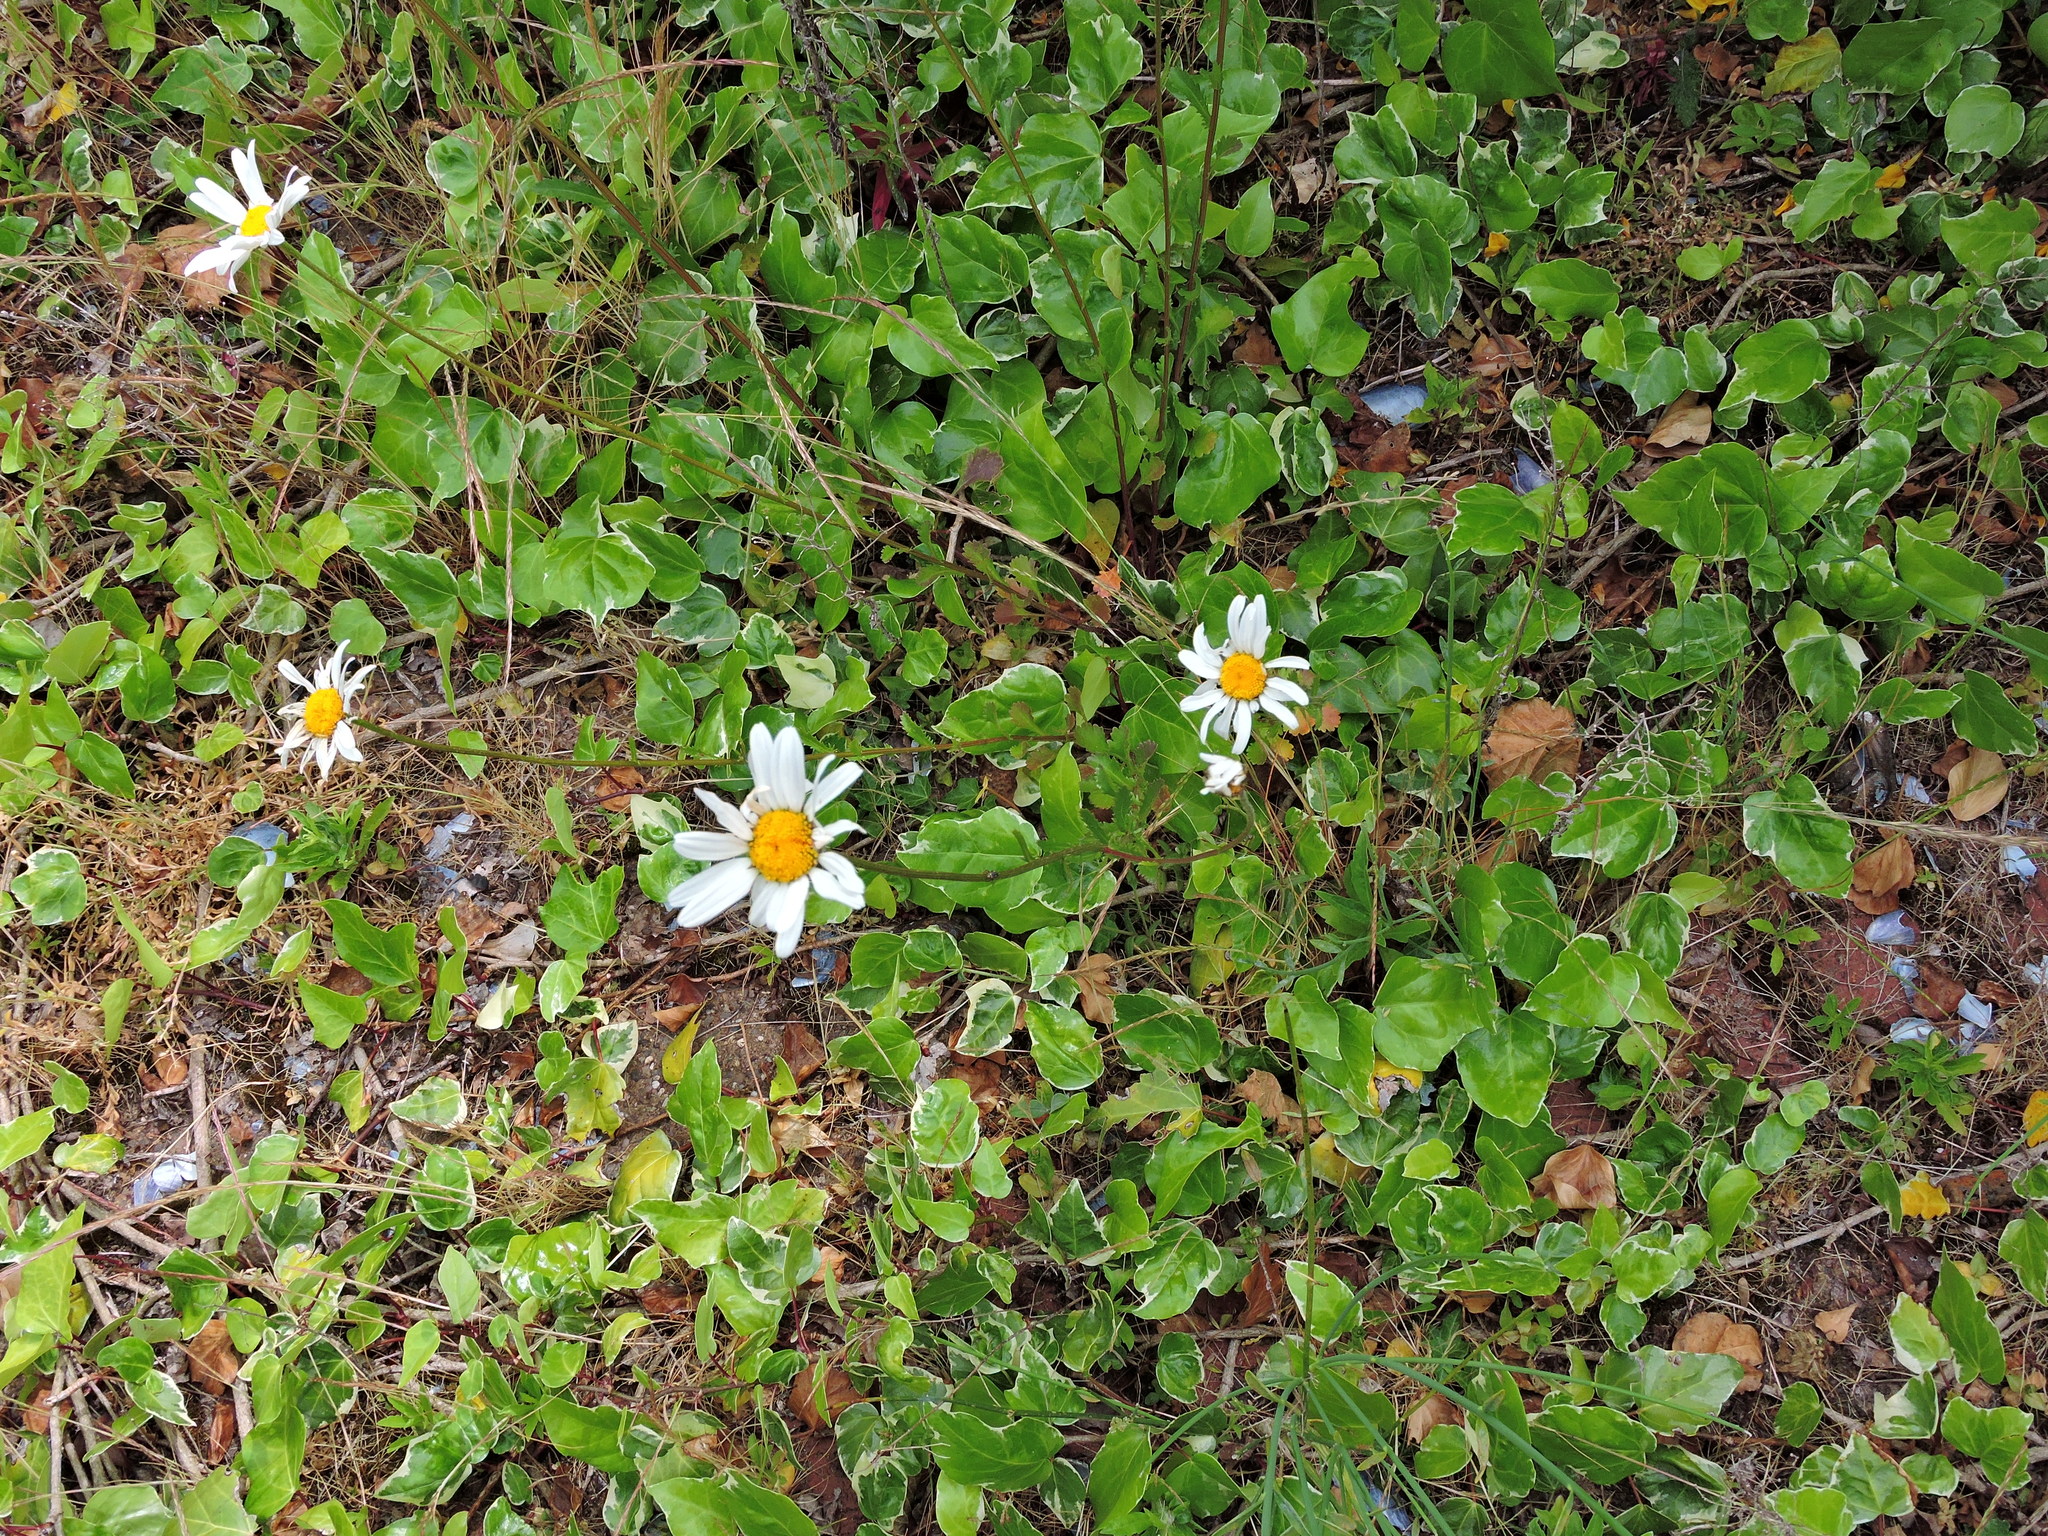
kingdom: Plantae
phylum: Tracheophyta
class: Magnoliopsida
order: Asterales
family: Asteraceae
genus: Leucanthemum
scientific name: Leucanthemum vulgare
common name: Oxeye daisy
